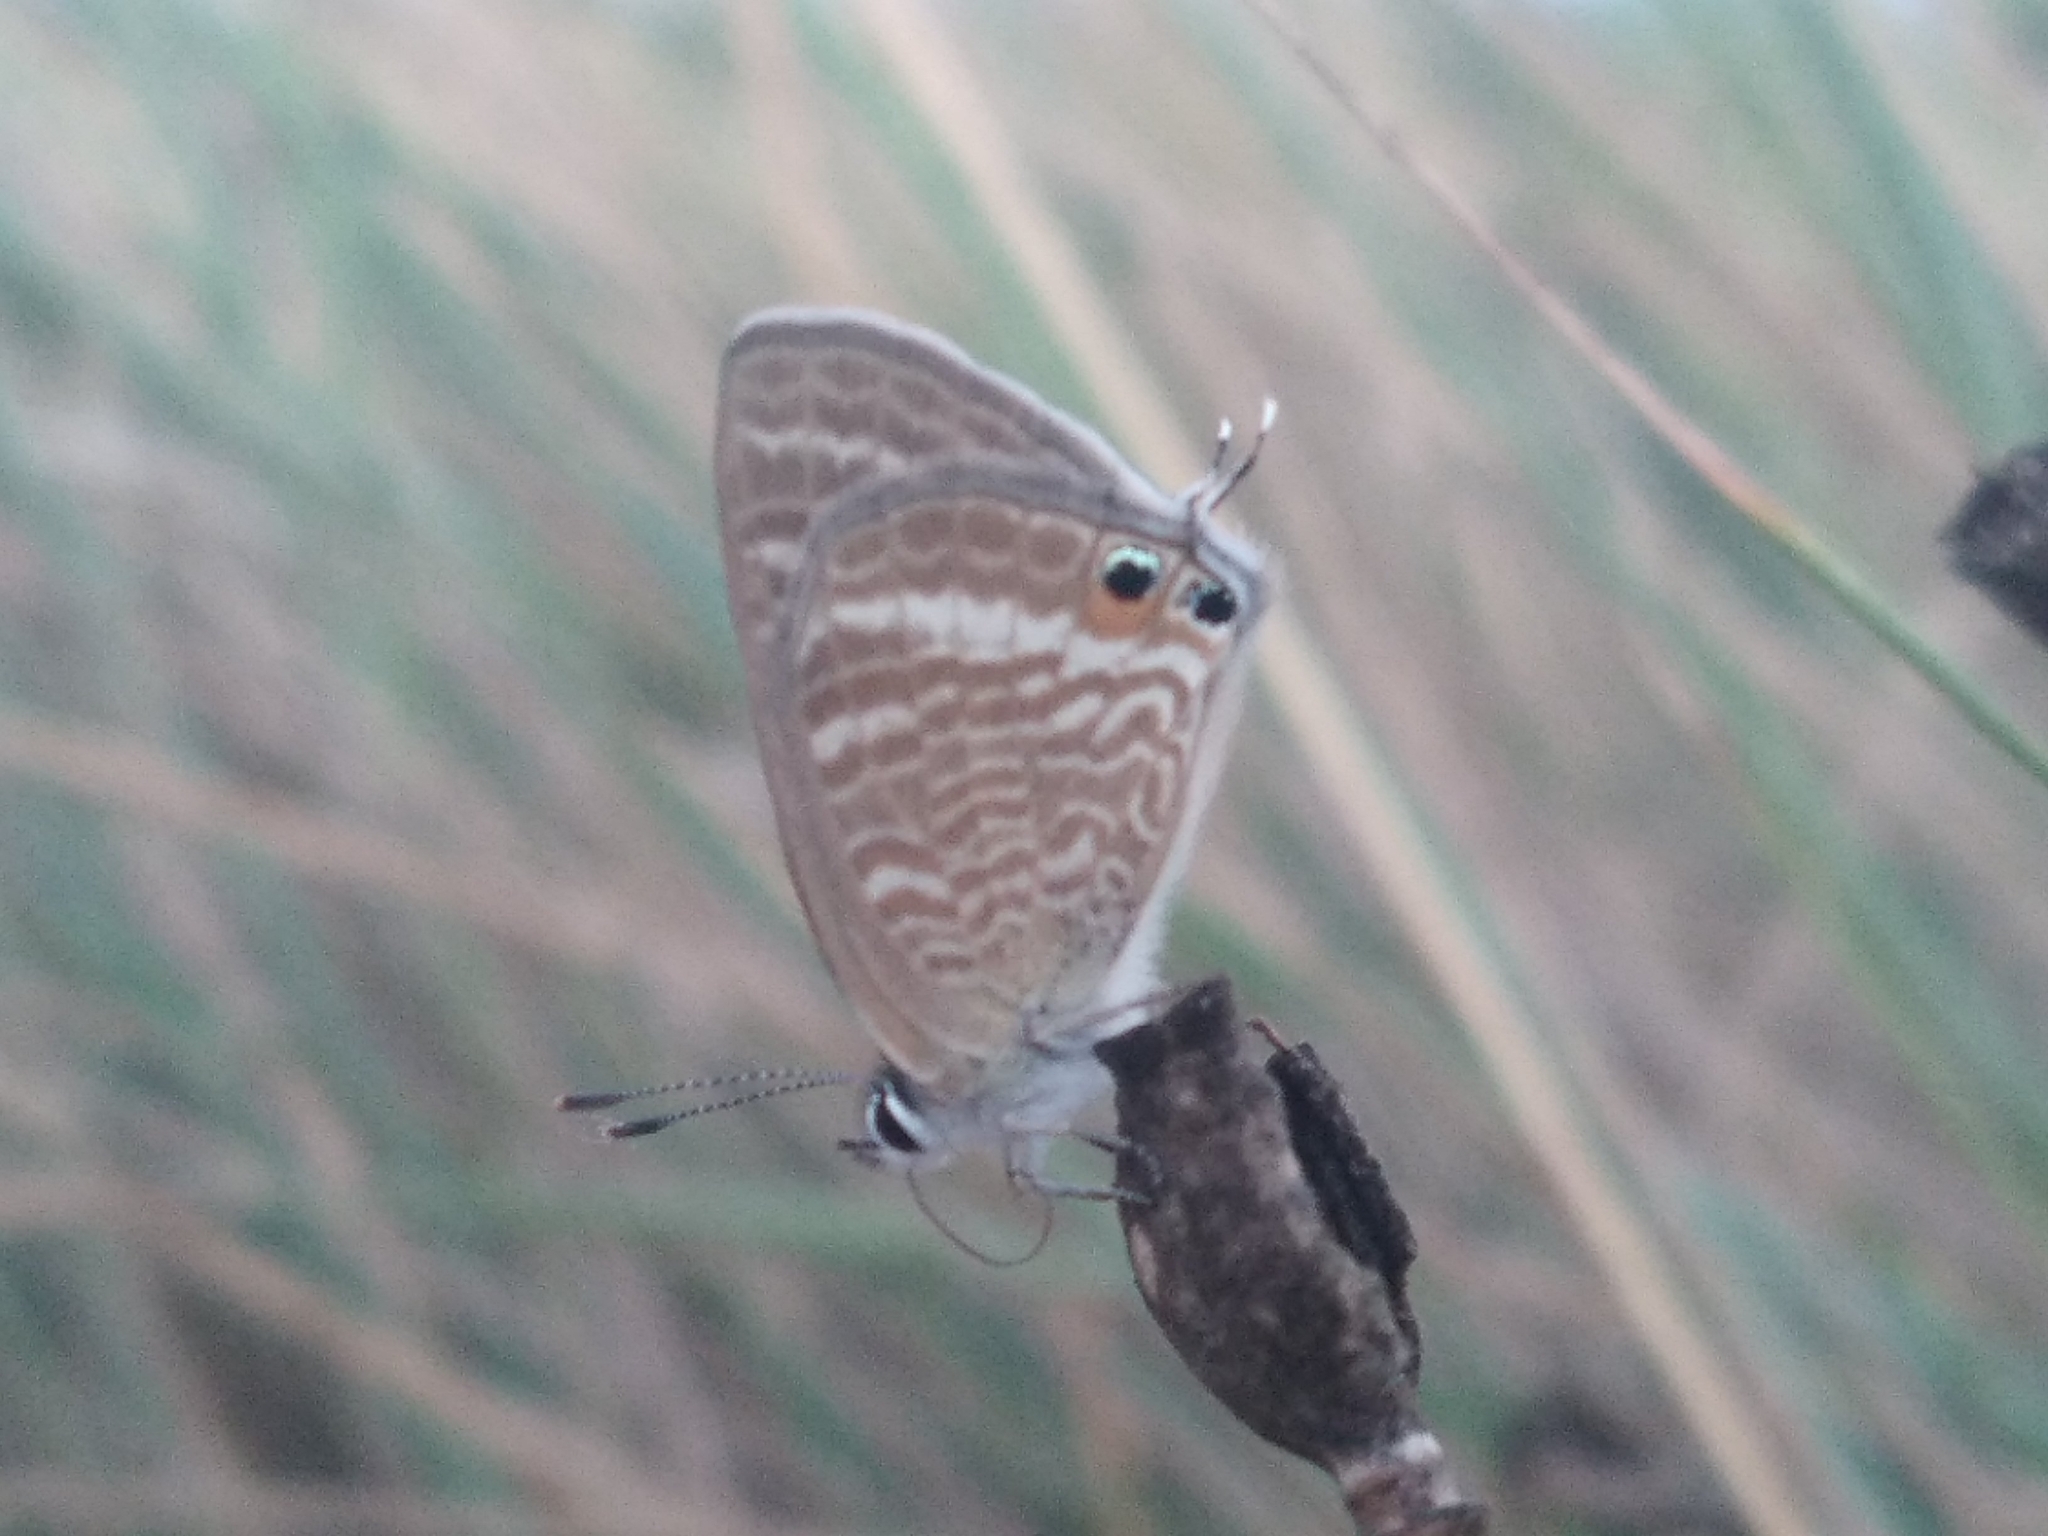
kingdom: Animalia
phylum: Arthropoda
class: Insecta
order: Lepidoptera
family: Lycaenidae
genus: Lampides
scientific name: Lampides boeticus
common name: Long-tailed blue
